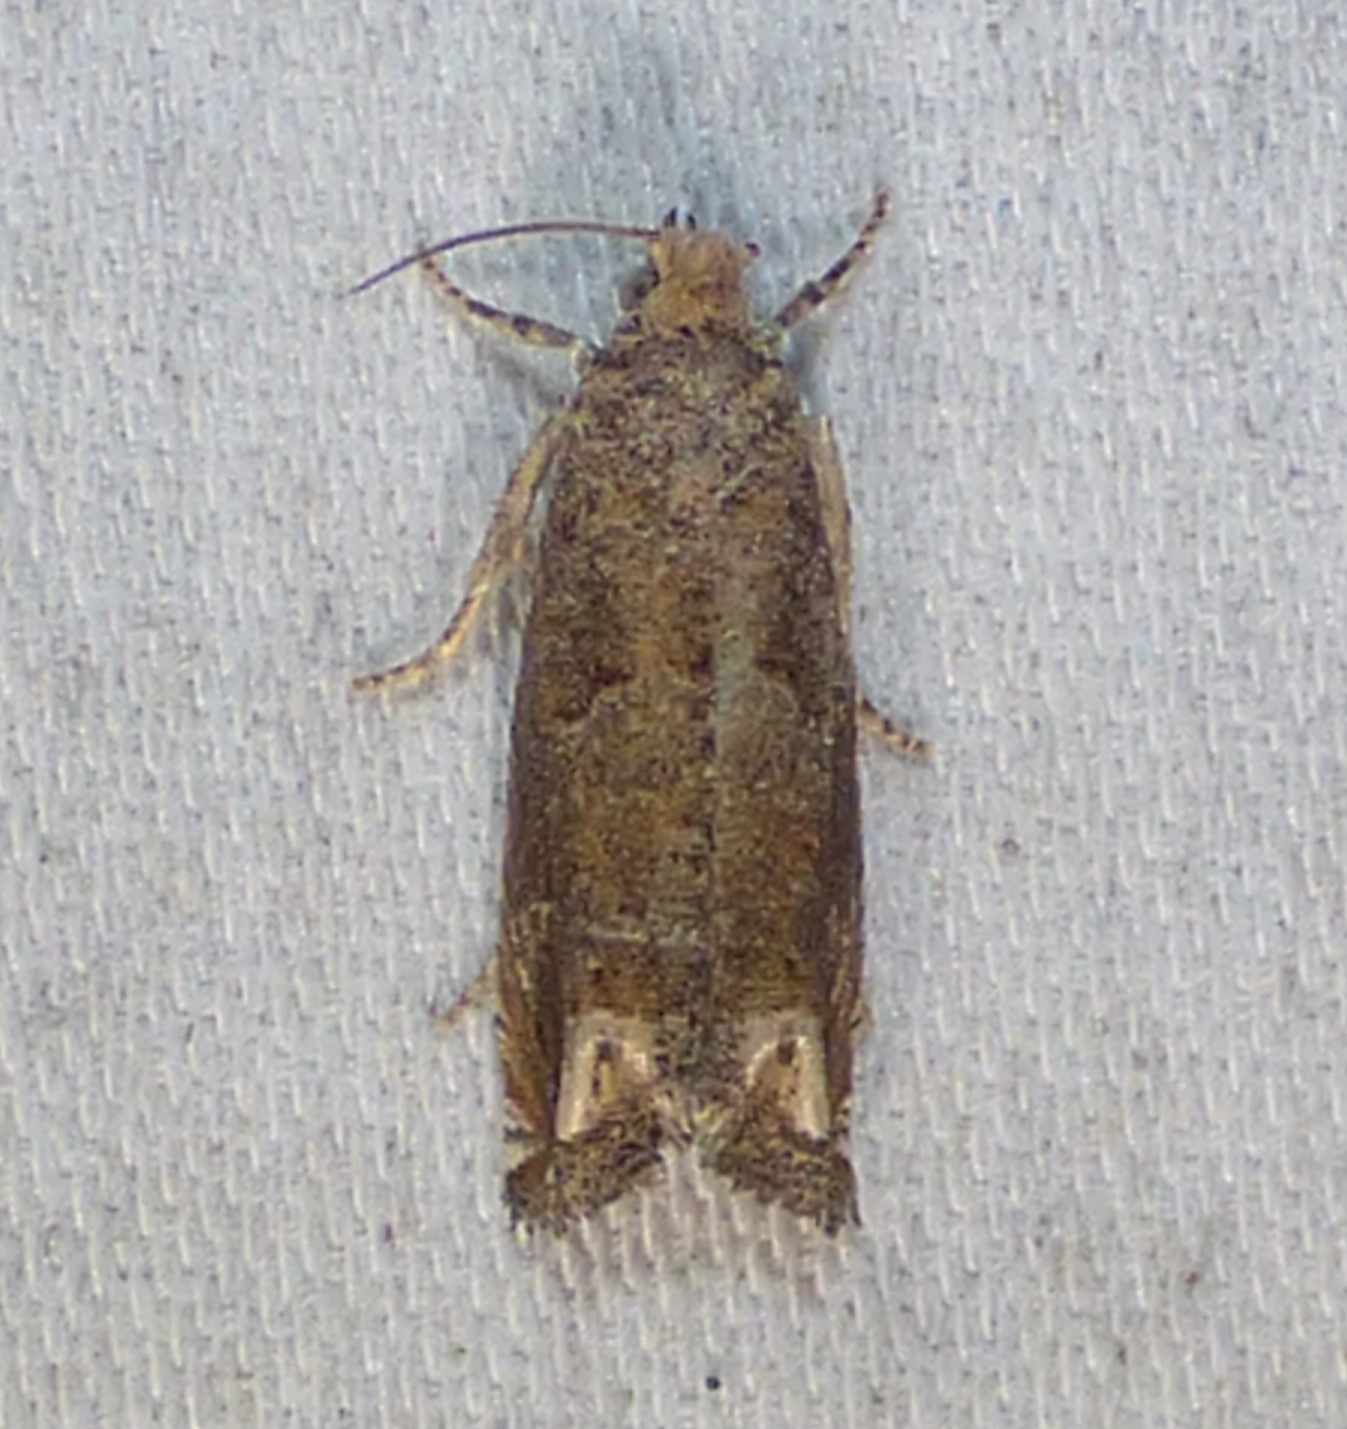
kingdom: Animalia
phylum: Arthropoda
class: Insecta
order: Lepidoptera
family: Tortricidae
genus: Epiblema
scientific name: Epiblema strenuana
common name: Ragweed borer moth
